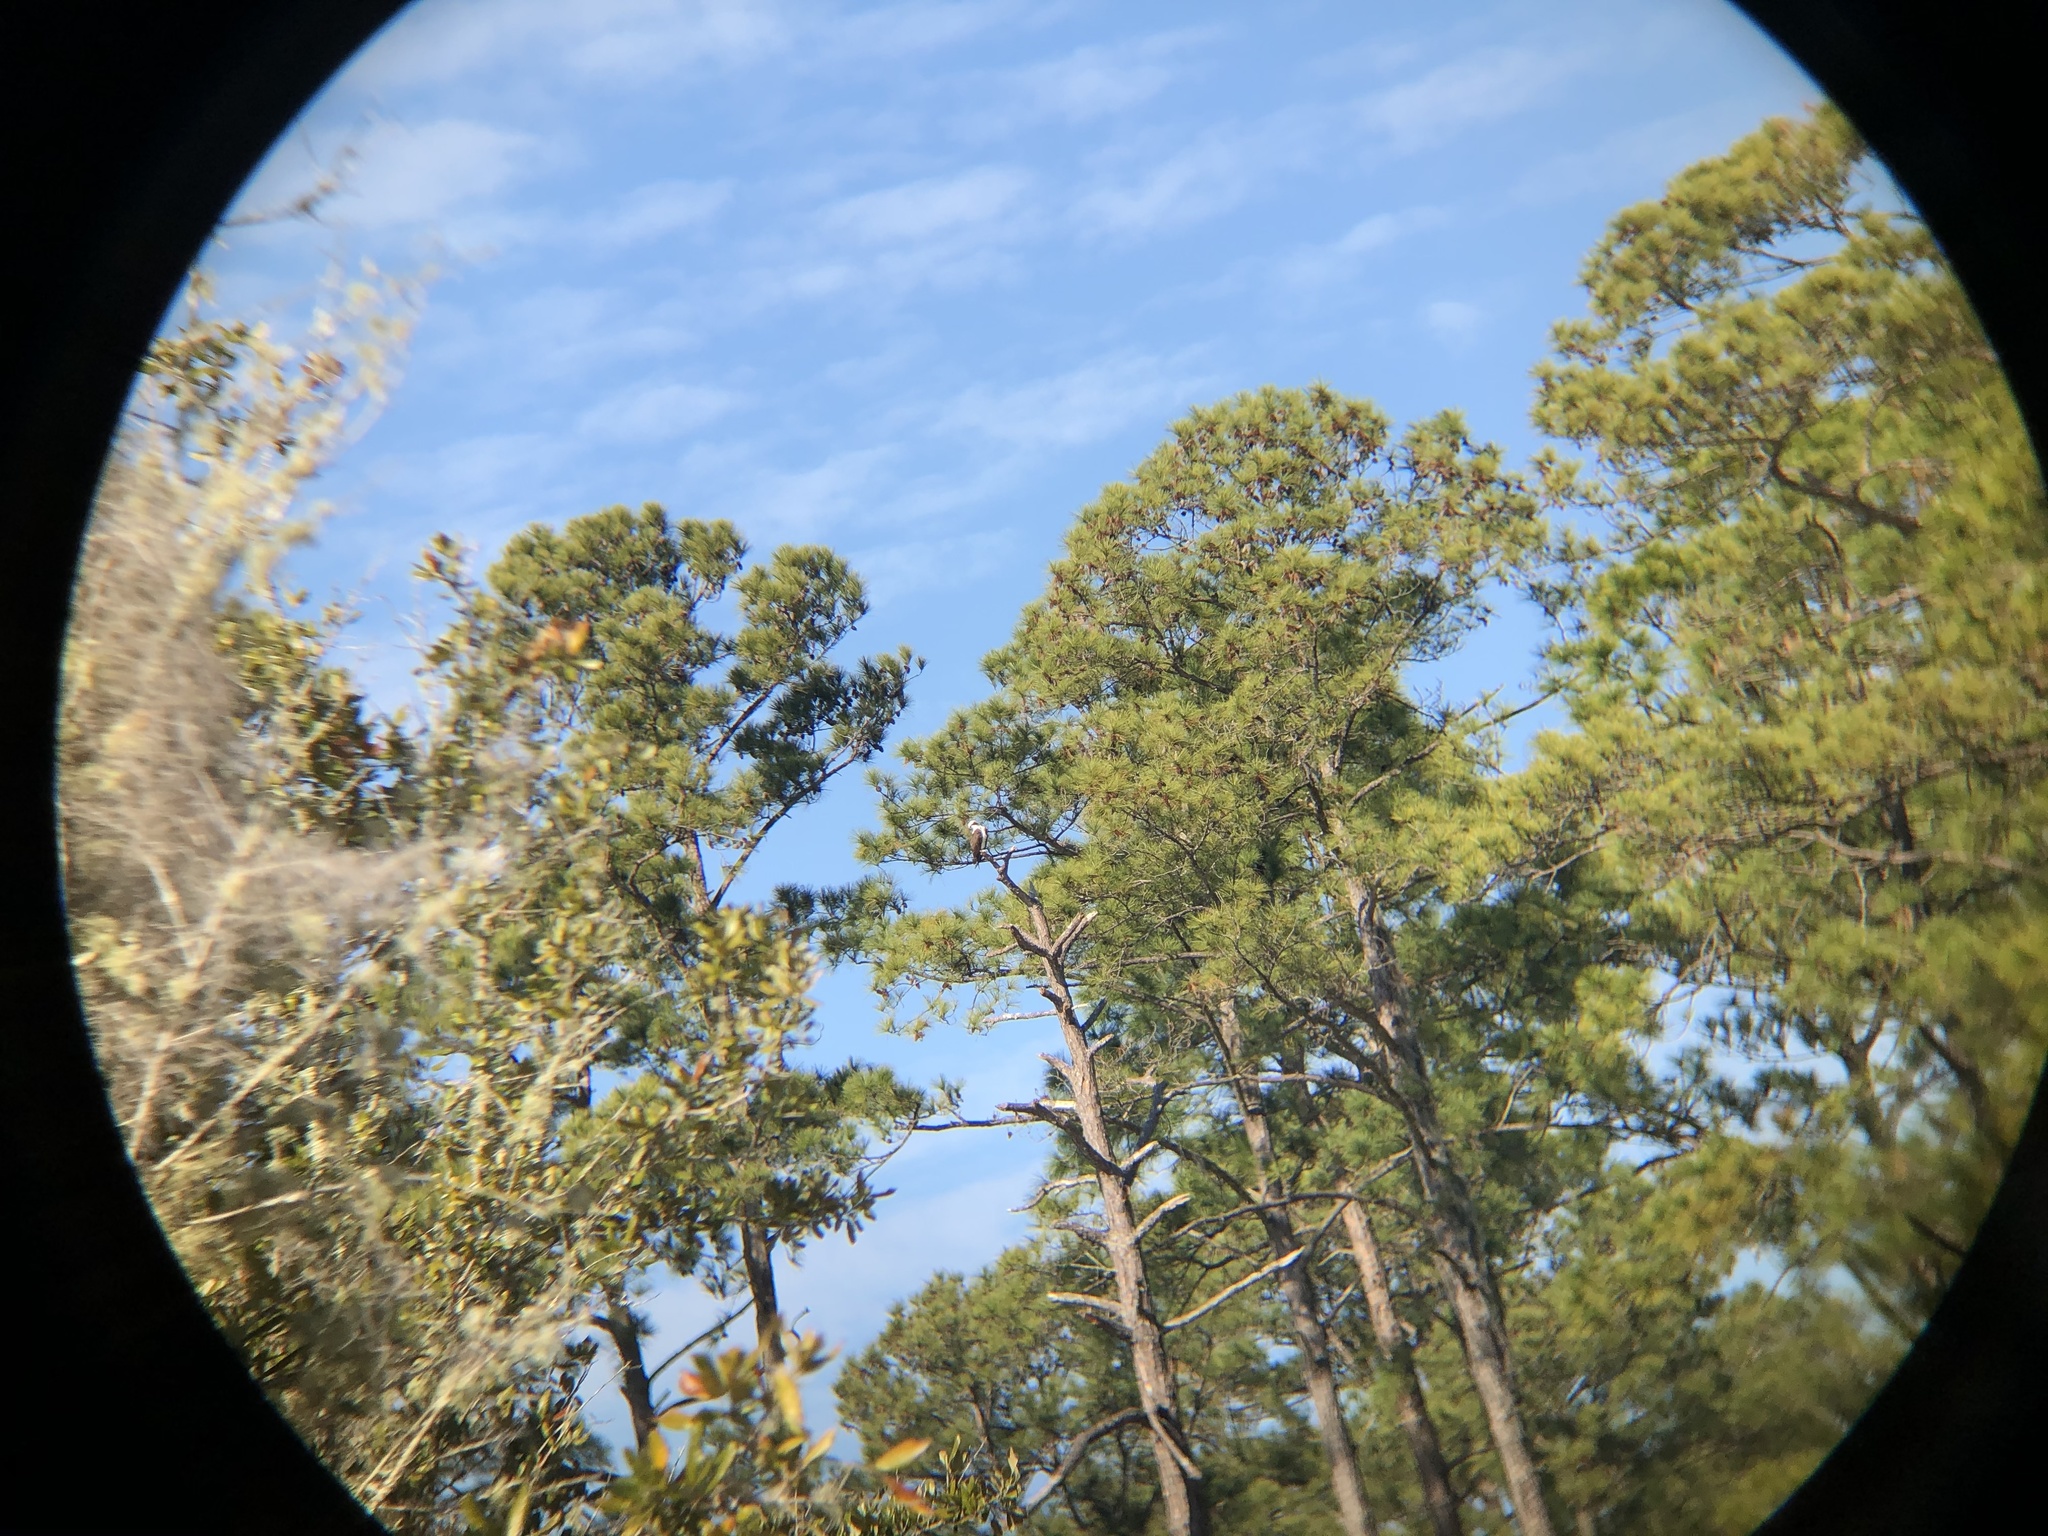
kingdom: Animalia
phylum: Chordata
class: Aves
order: Accipitriformes
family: Pandionidae
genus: Pandion
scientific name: Pandion haliaetus
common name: Osprey
